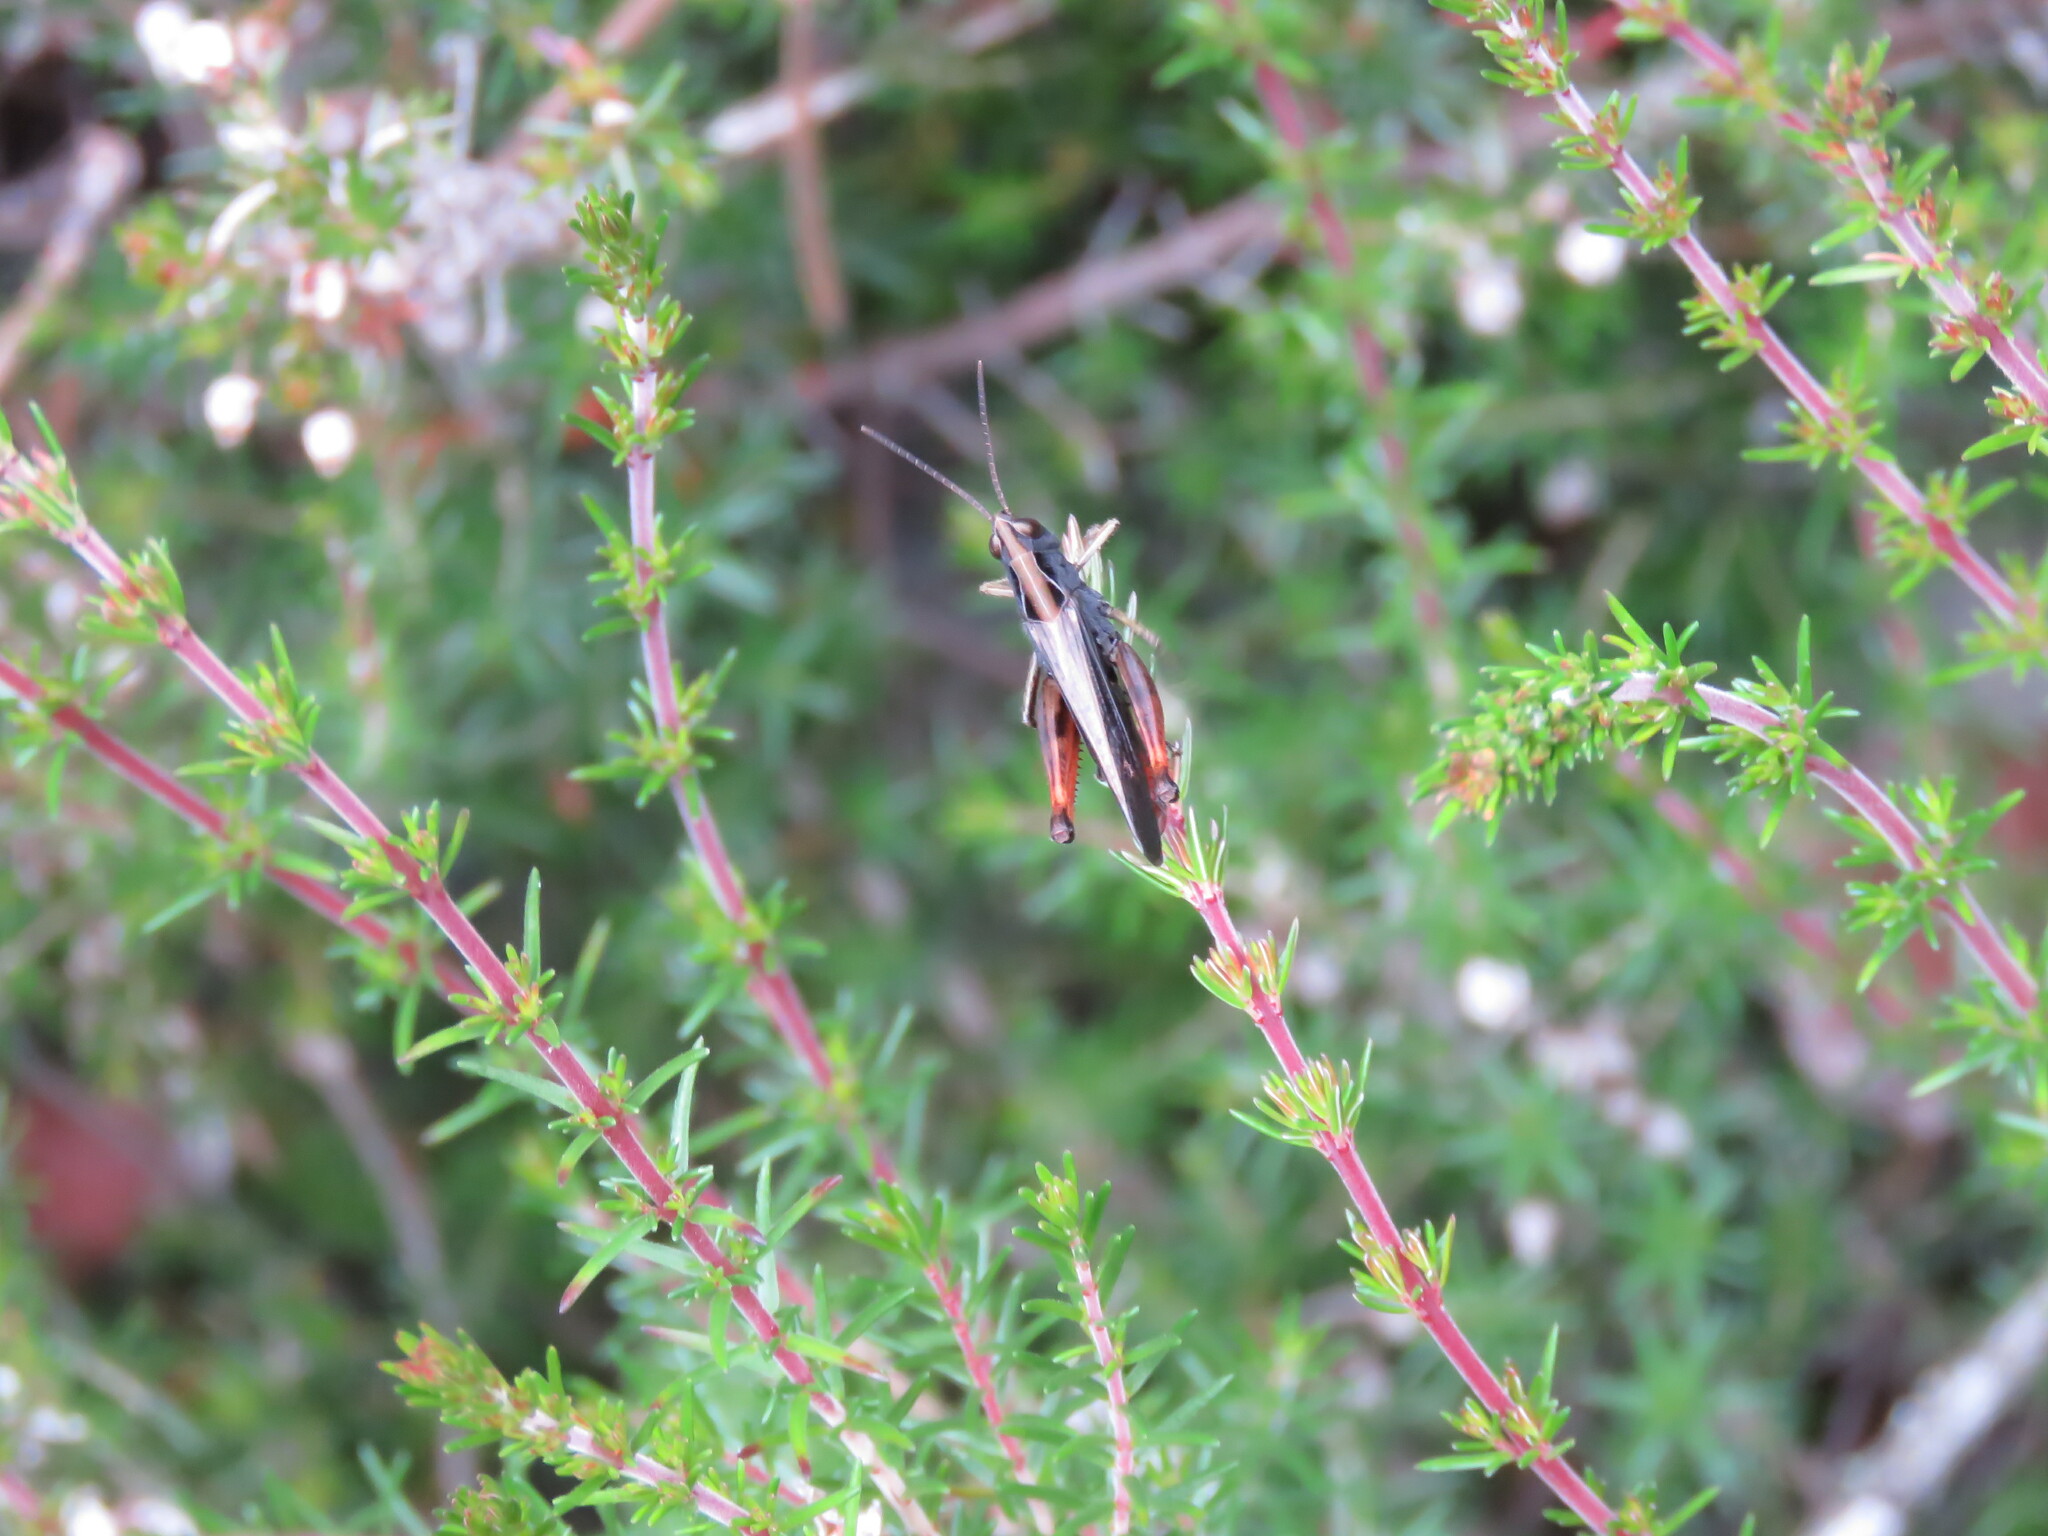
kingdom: Animalia
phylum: Arthropoda
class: Insecta
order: Orthoptera
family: Acrididae
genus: Omocestus
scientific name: Omocestus rufipes
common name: Woodland grasshopper
